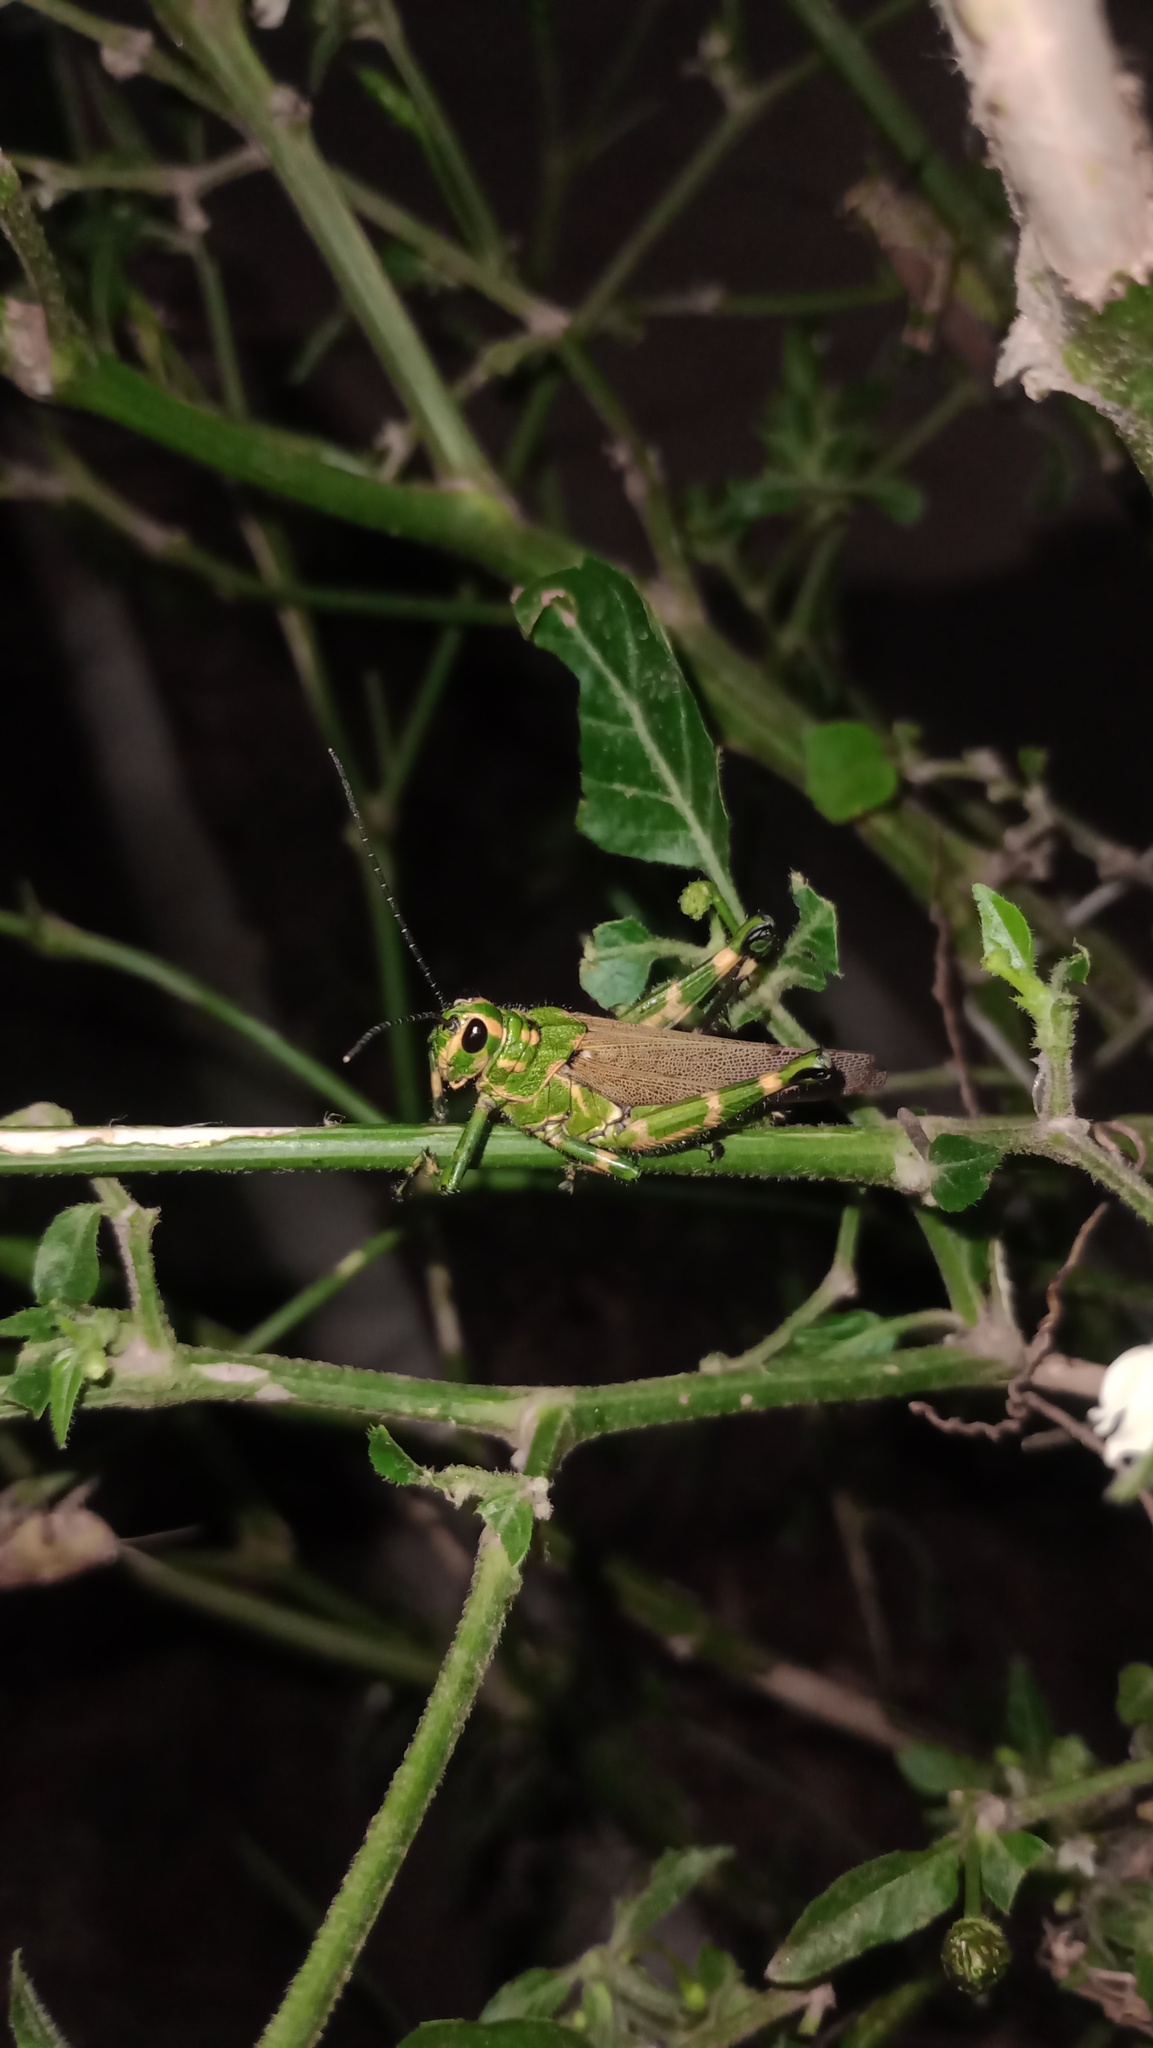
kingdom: Animalia
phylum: Arthropoda
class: Insecta
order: Orthoptera
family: Romaleidae
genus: Chromacris
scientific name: Chromacris speciosa
